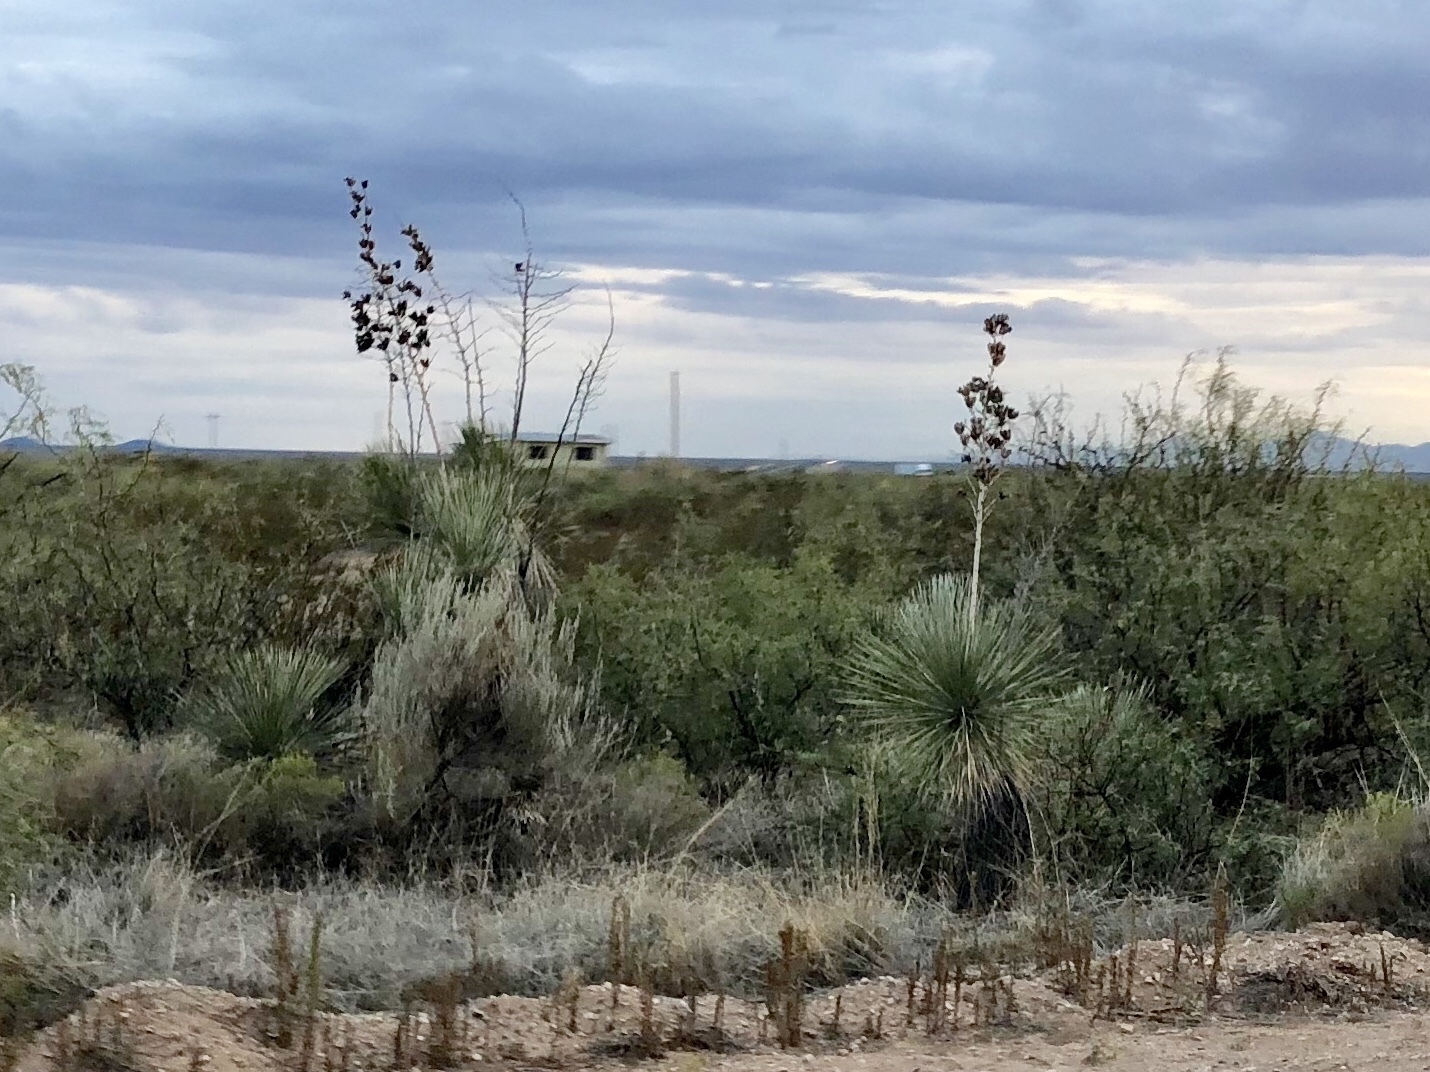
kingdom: Plantae
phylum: Tracheophyta
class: Liliopsida
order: Asparagales
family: Asparagaceae
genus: Yucca
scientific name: Yucca elata
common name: Palmella
